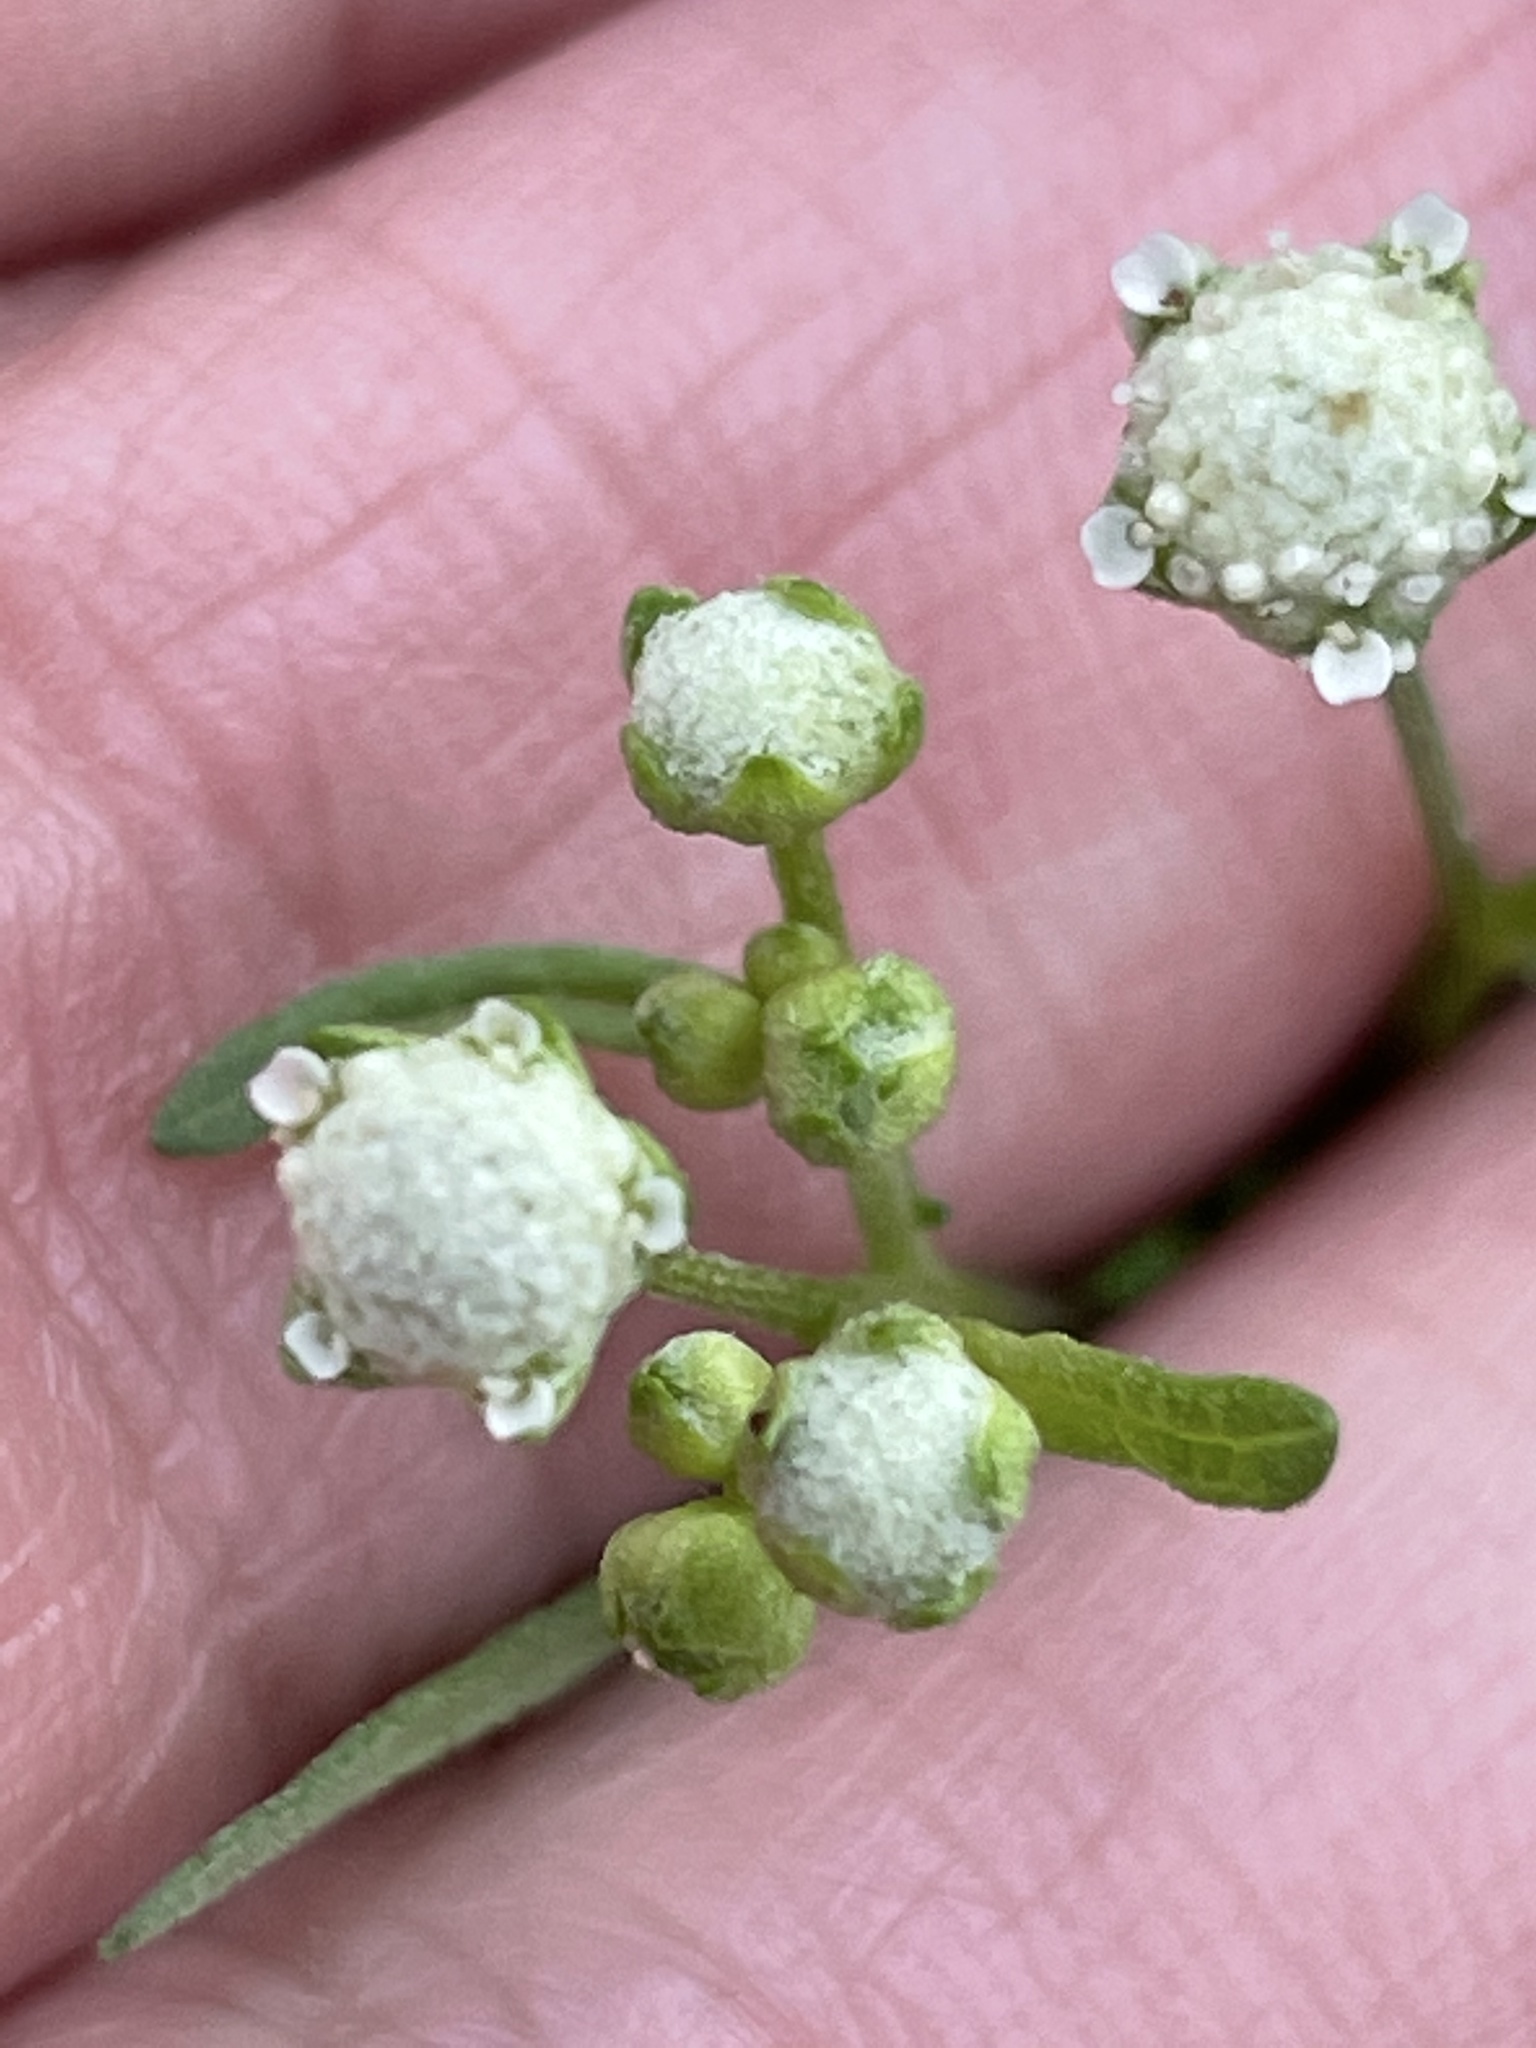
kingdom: Plantae
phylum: Tracheophyta
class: Magnoliopsida
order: Asterales
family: Asteraceae
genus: Parthenium
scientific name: Parthenium hysterophorus
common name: Santa maria feverfew
